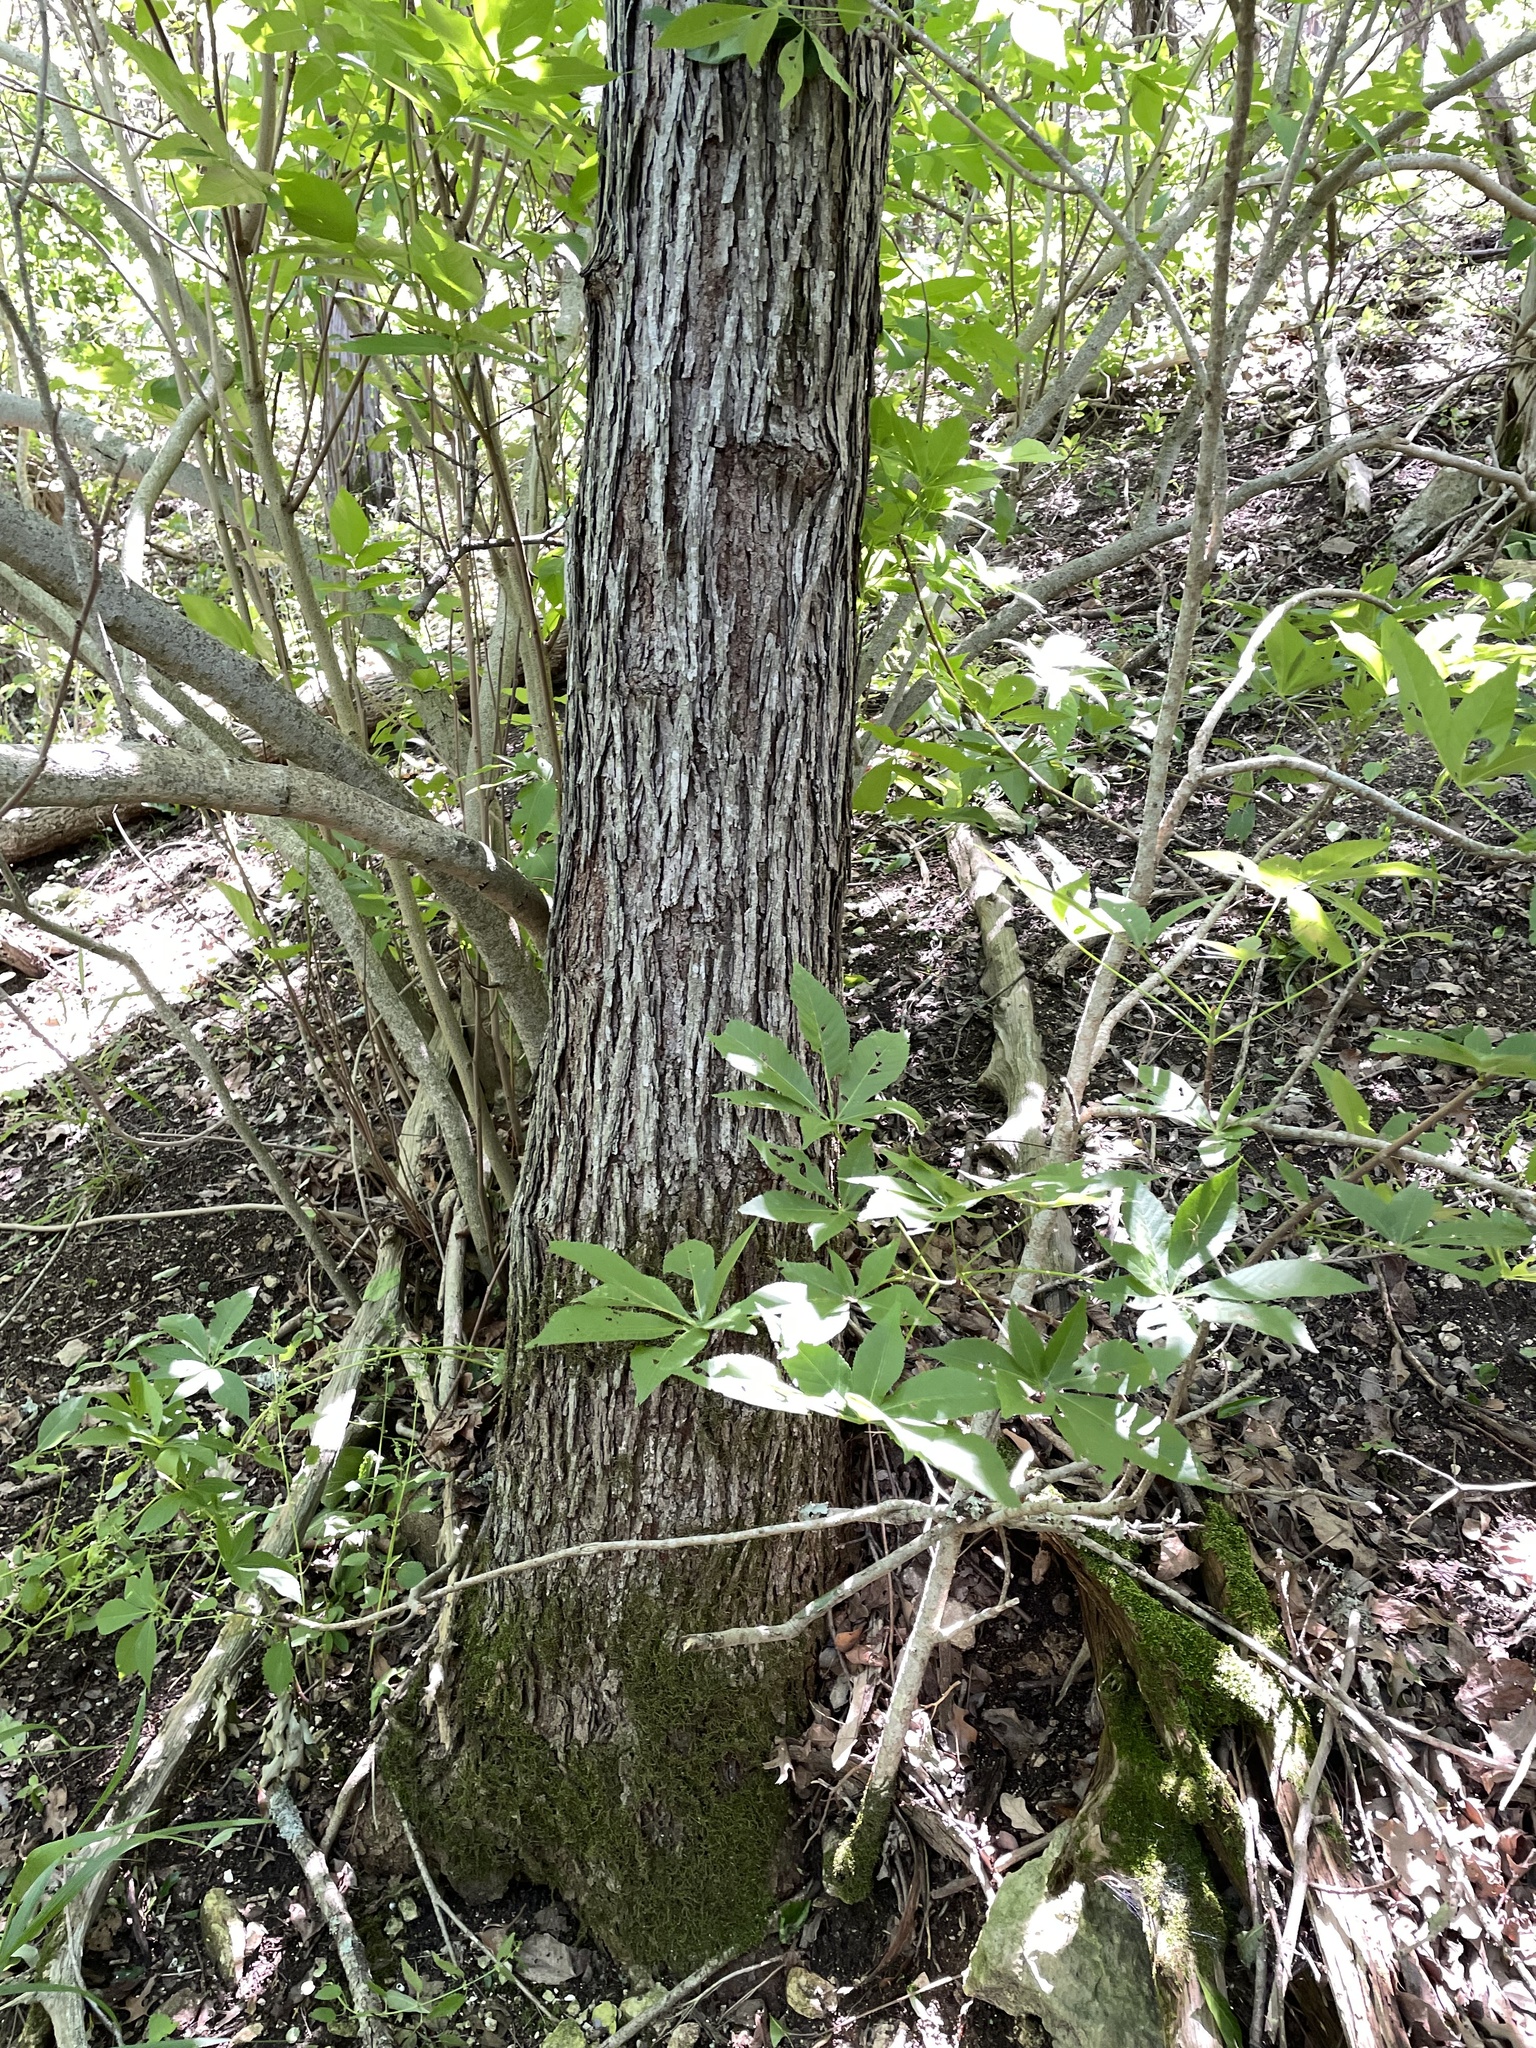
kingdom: Plantae
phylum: Tracheophyta
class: Magnoliopsida
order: Rosales
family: Moraceae
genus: Morus
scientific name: Morus rubra
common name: Red mulberry
